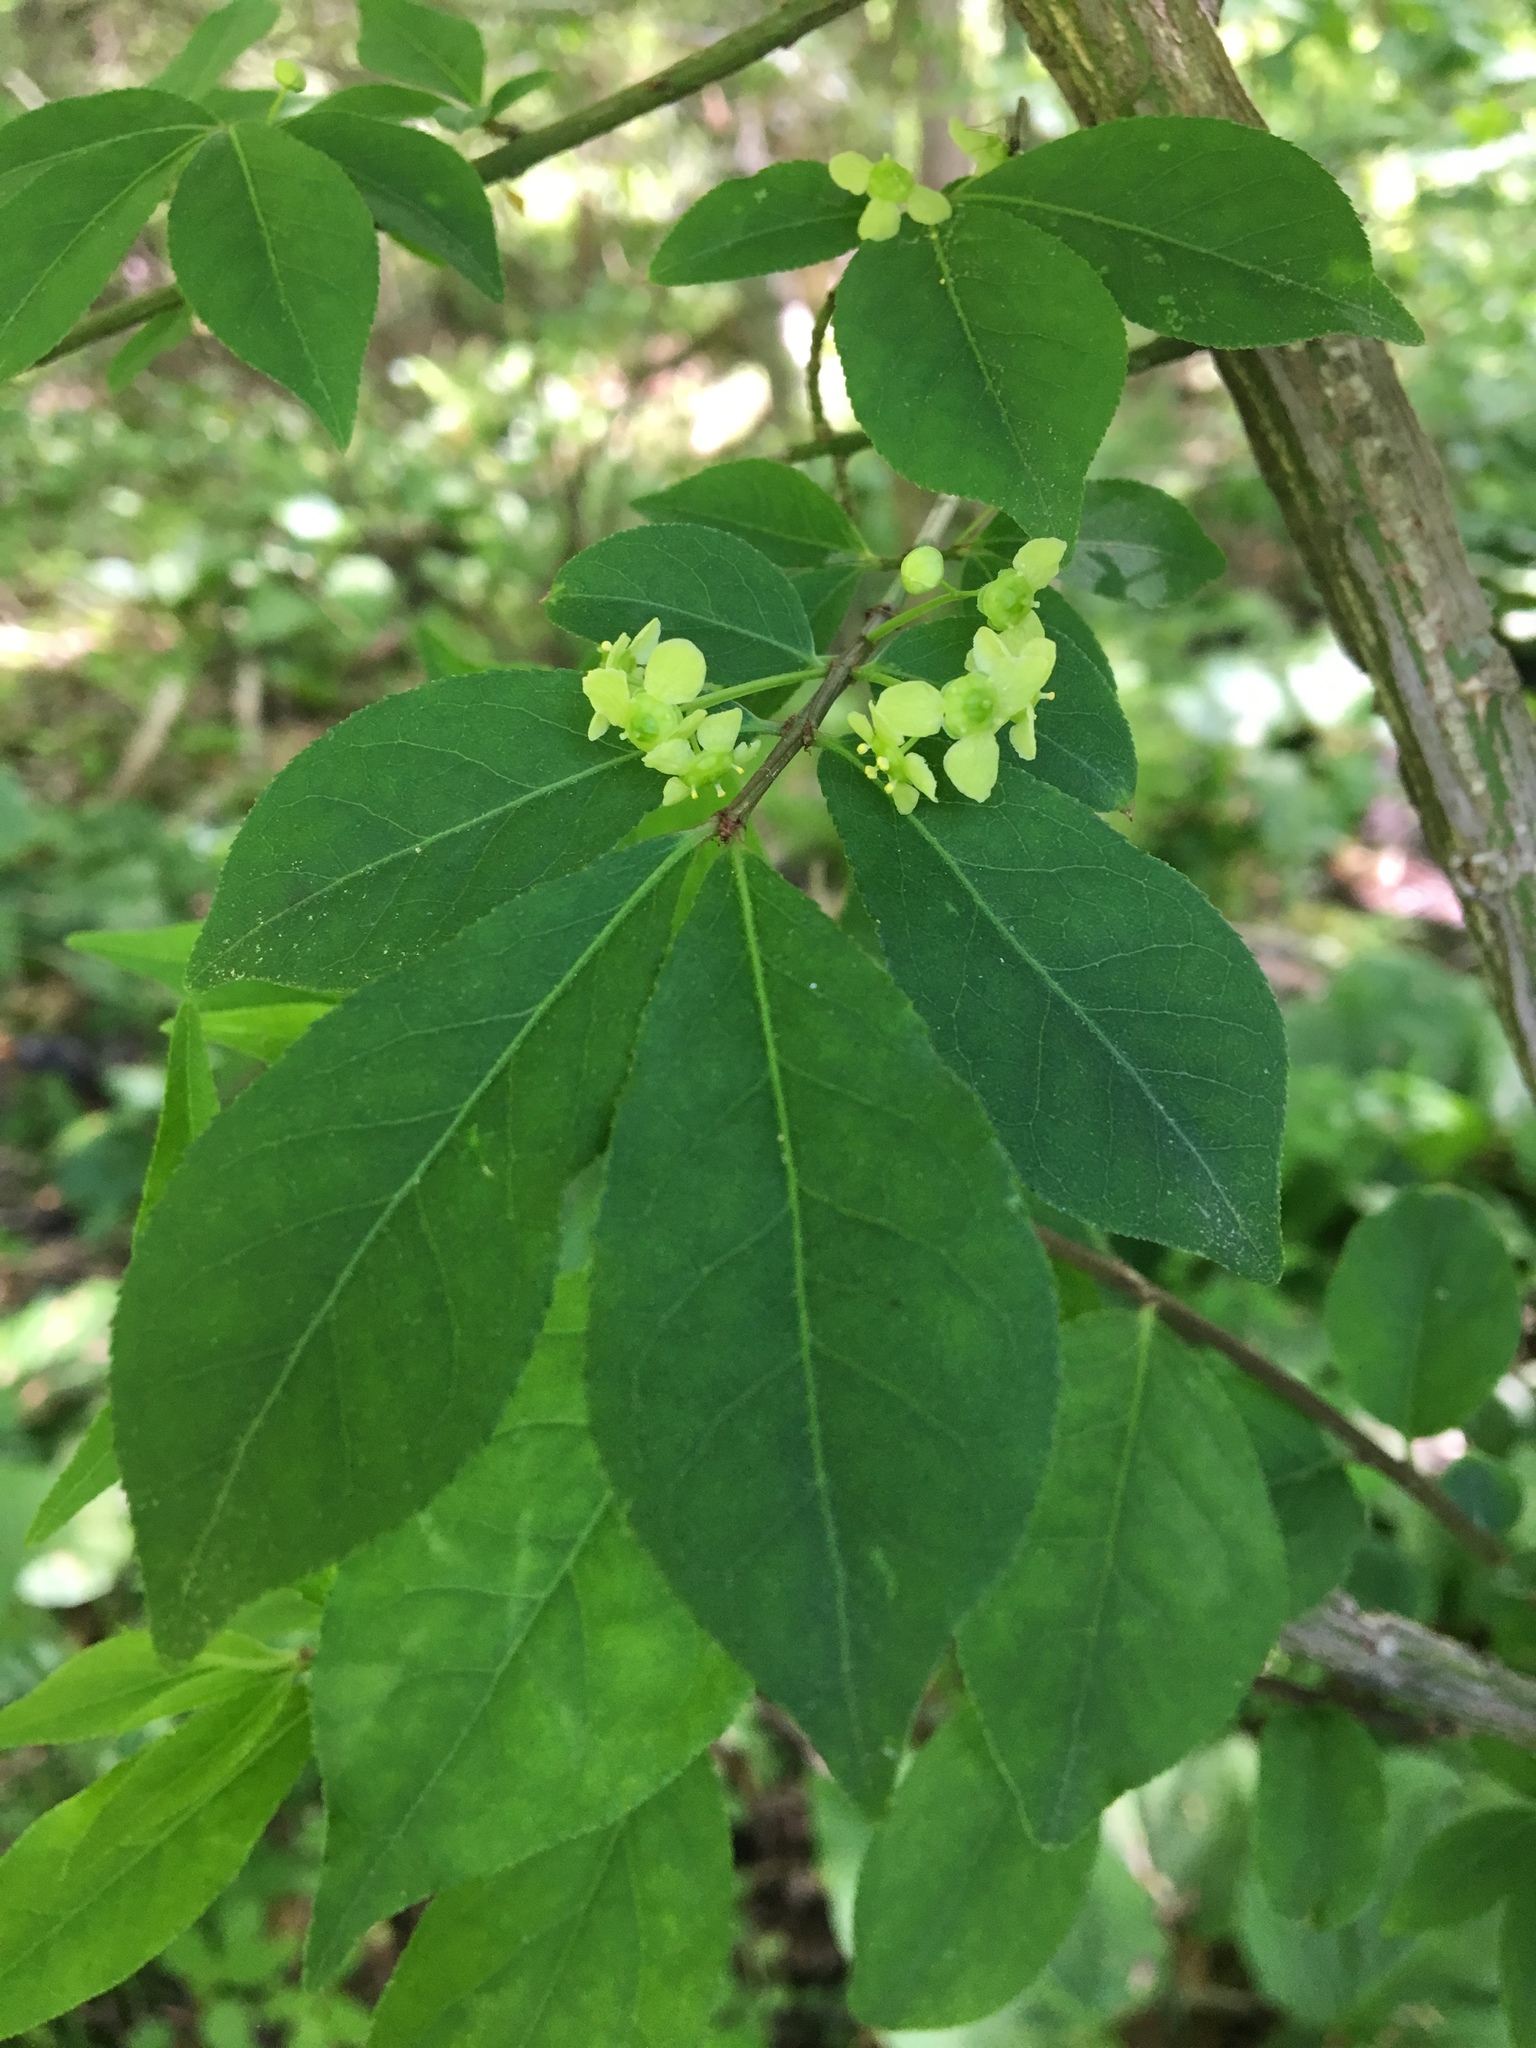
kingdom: Plantae
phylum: Tracheophyta
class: Magnoliopsida
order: Celastrales
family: Celastraceae
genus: Euonymus
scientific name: Euonymus alatus
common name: Winged euonymus
